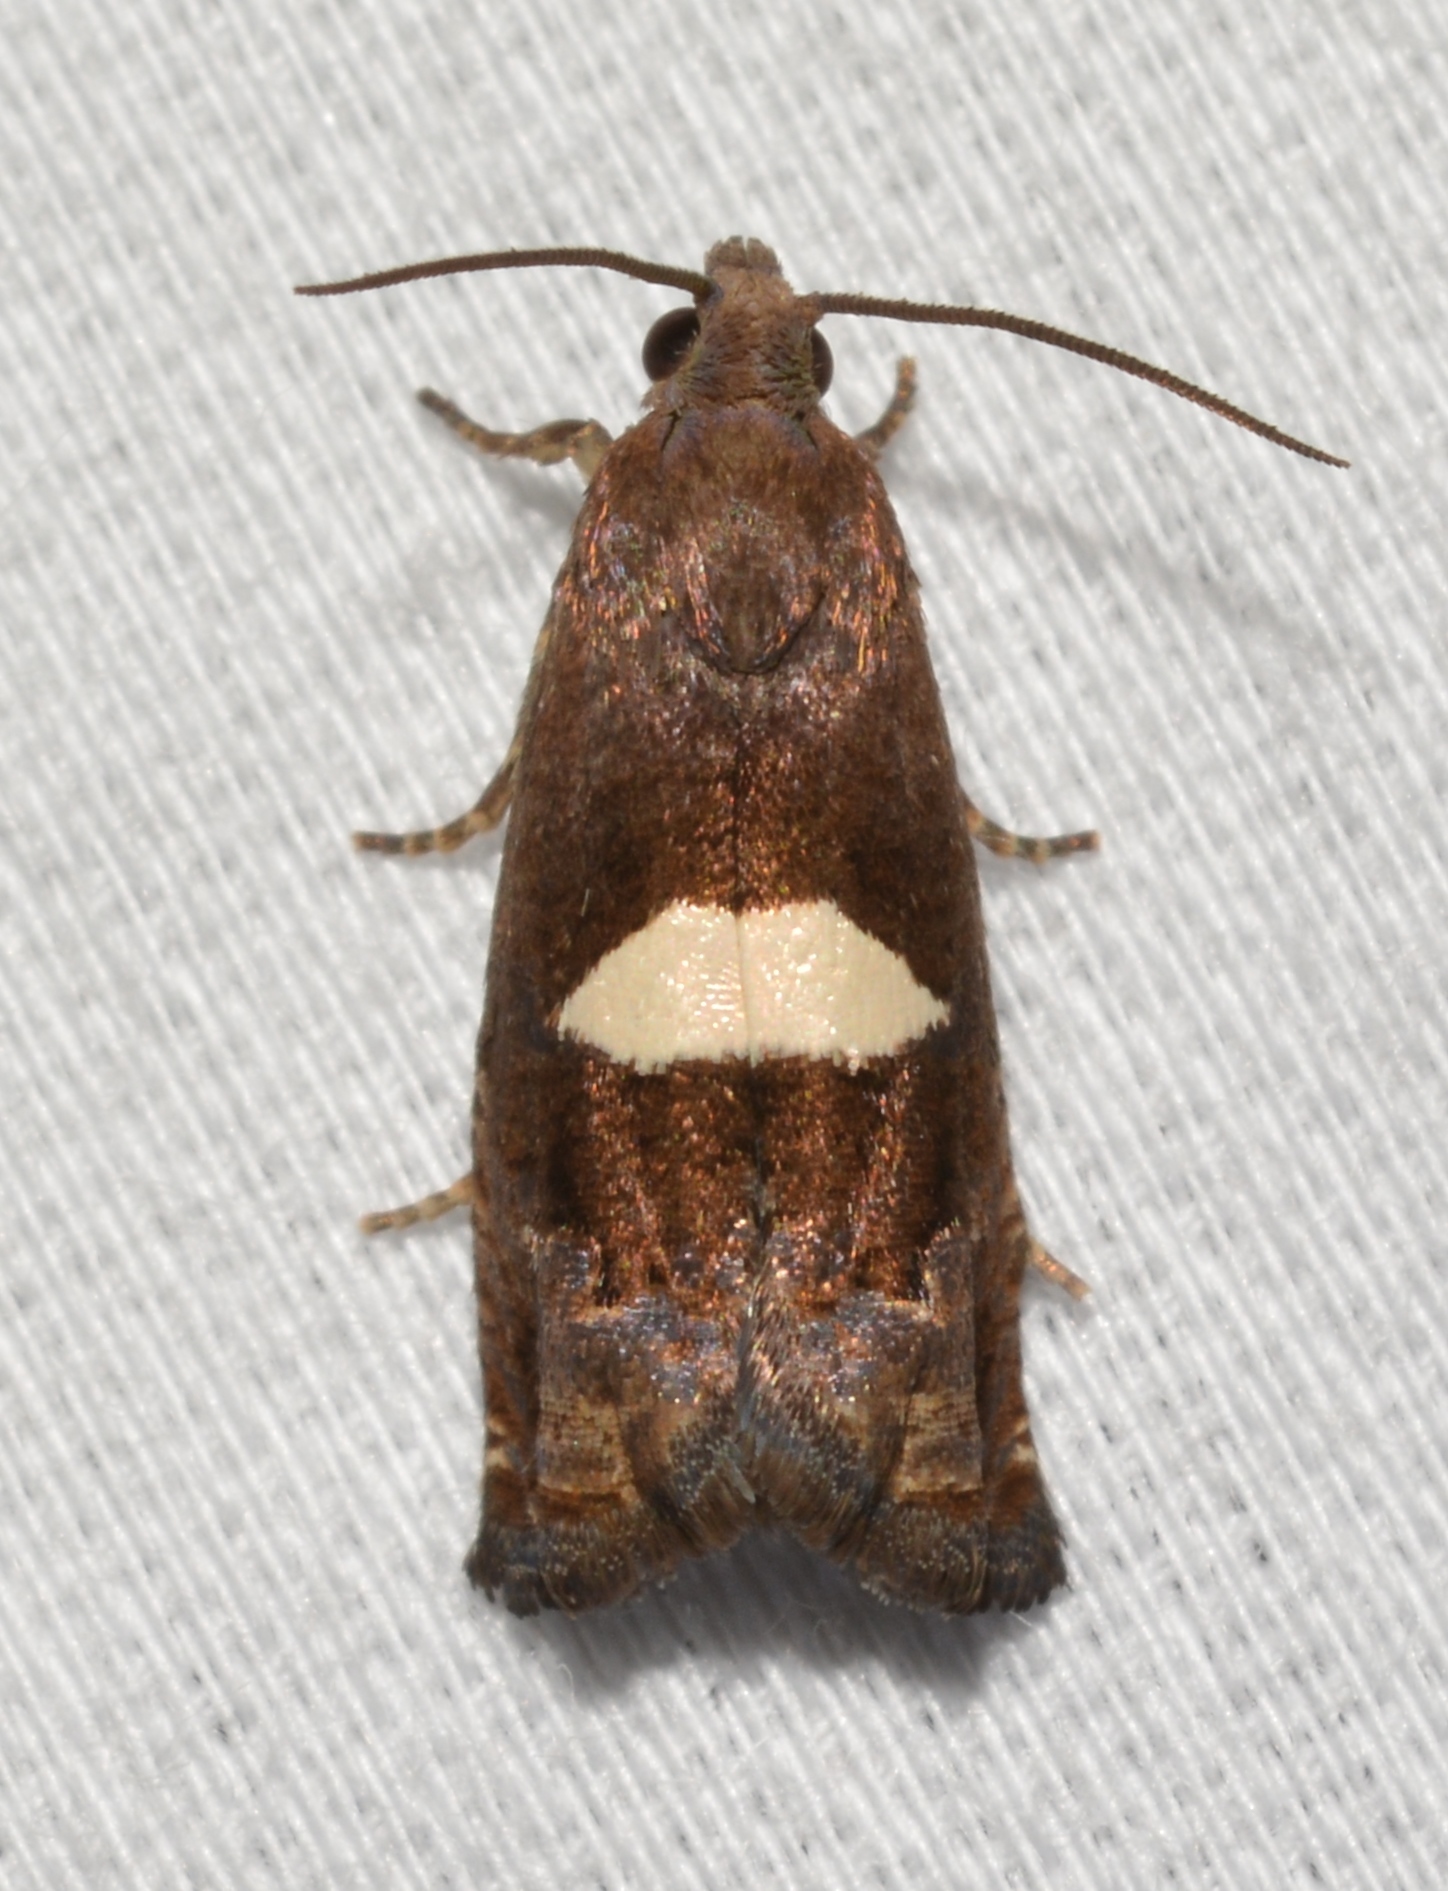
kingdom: Animalia
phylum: Arthropoda
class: Insecta
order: Lepidoptera
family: Tortricidae
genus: Epiblema
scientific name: Epiblema gibsoni
